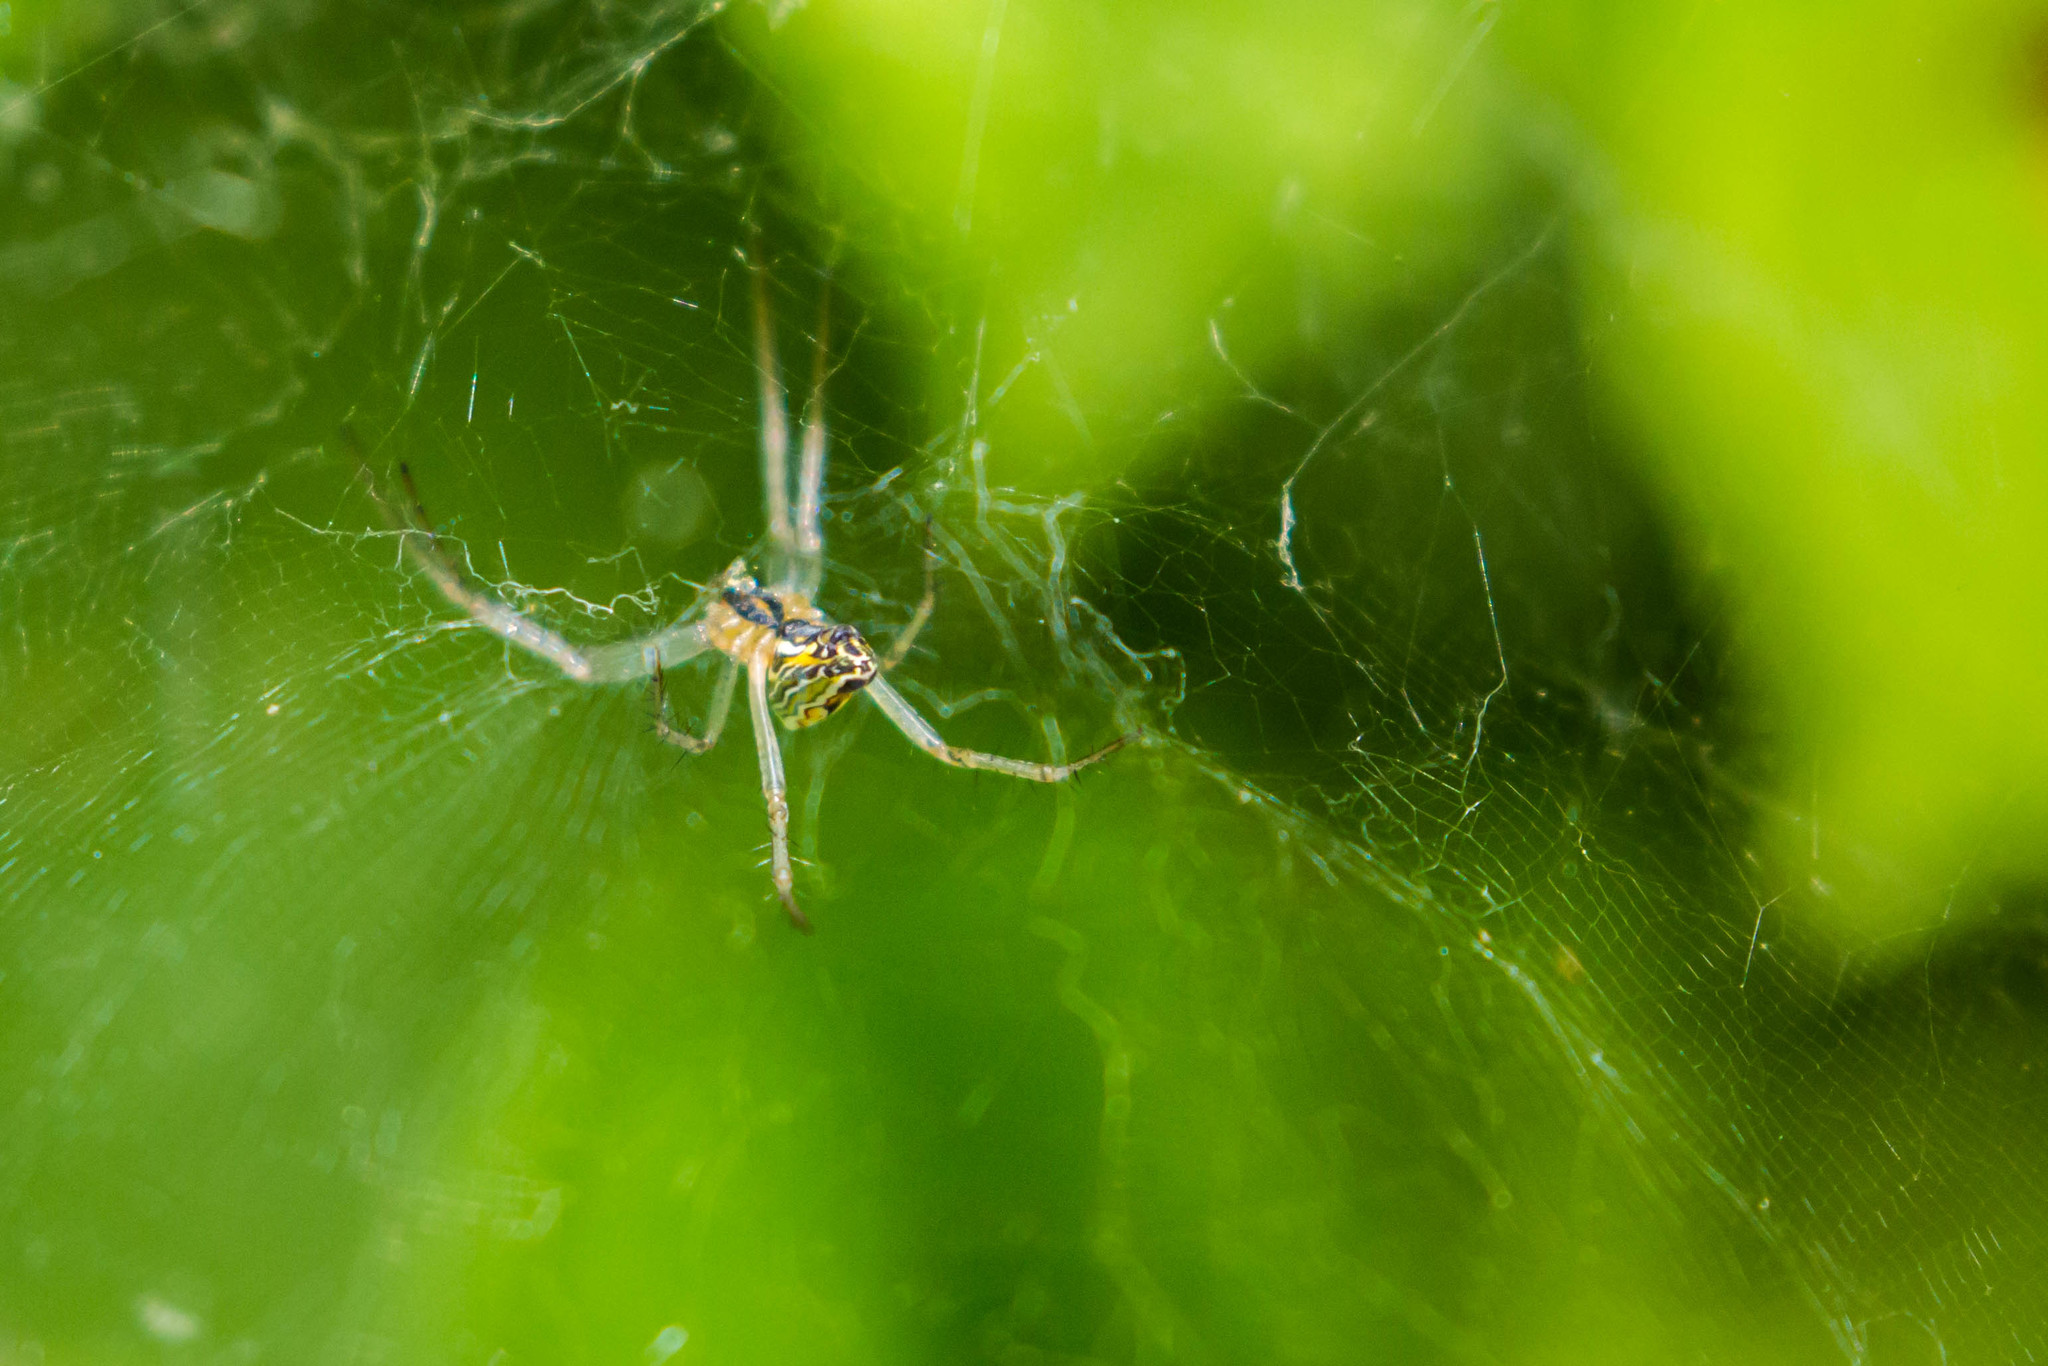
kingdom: Animalia
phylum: Arthropoda
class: Arachnida
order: Araneae
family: Araneidae
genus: Mecynogea
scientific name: Mecynogea lemniscata
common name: Orb weavers
